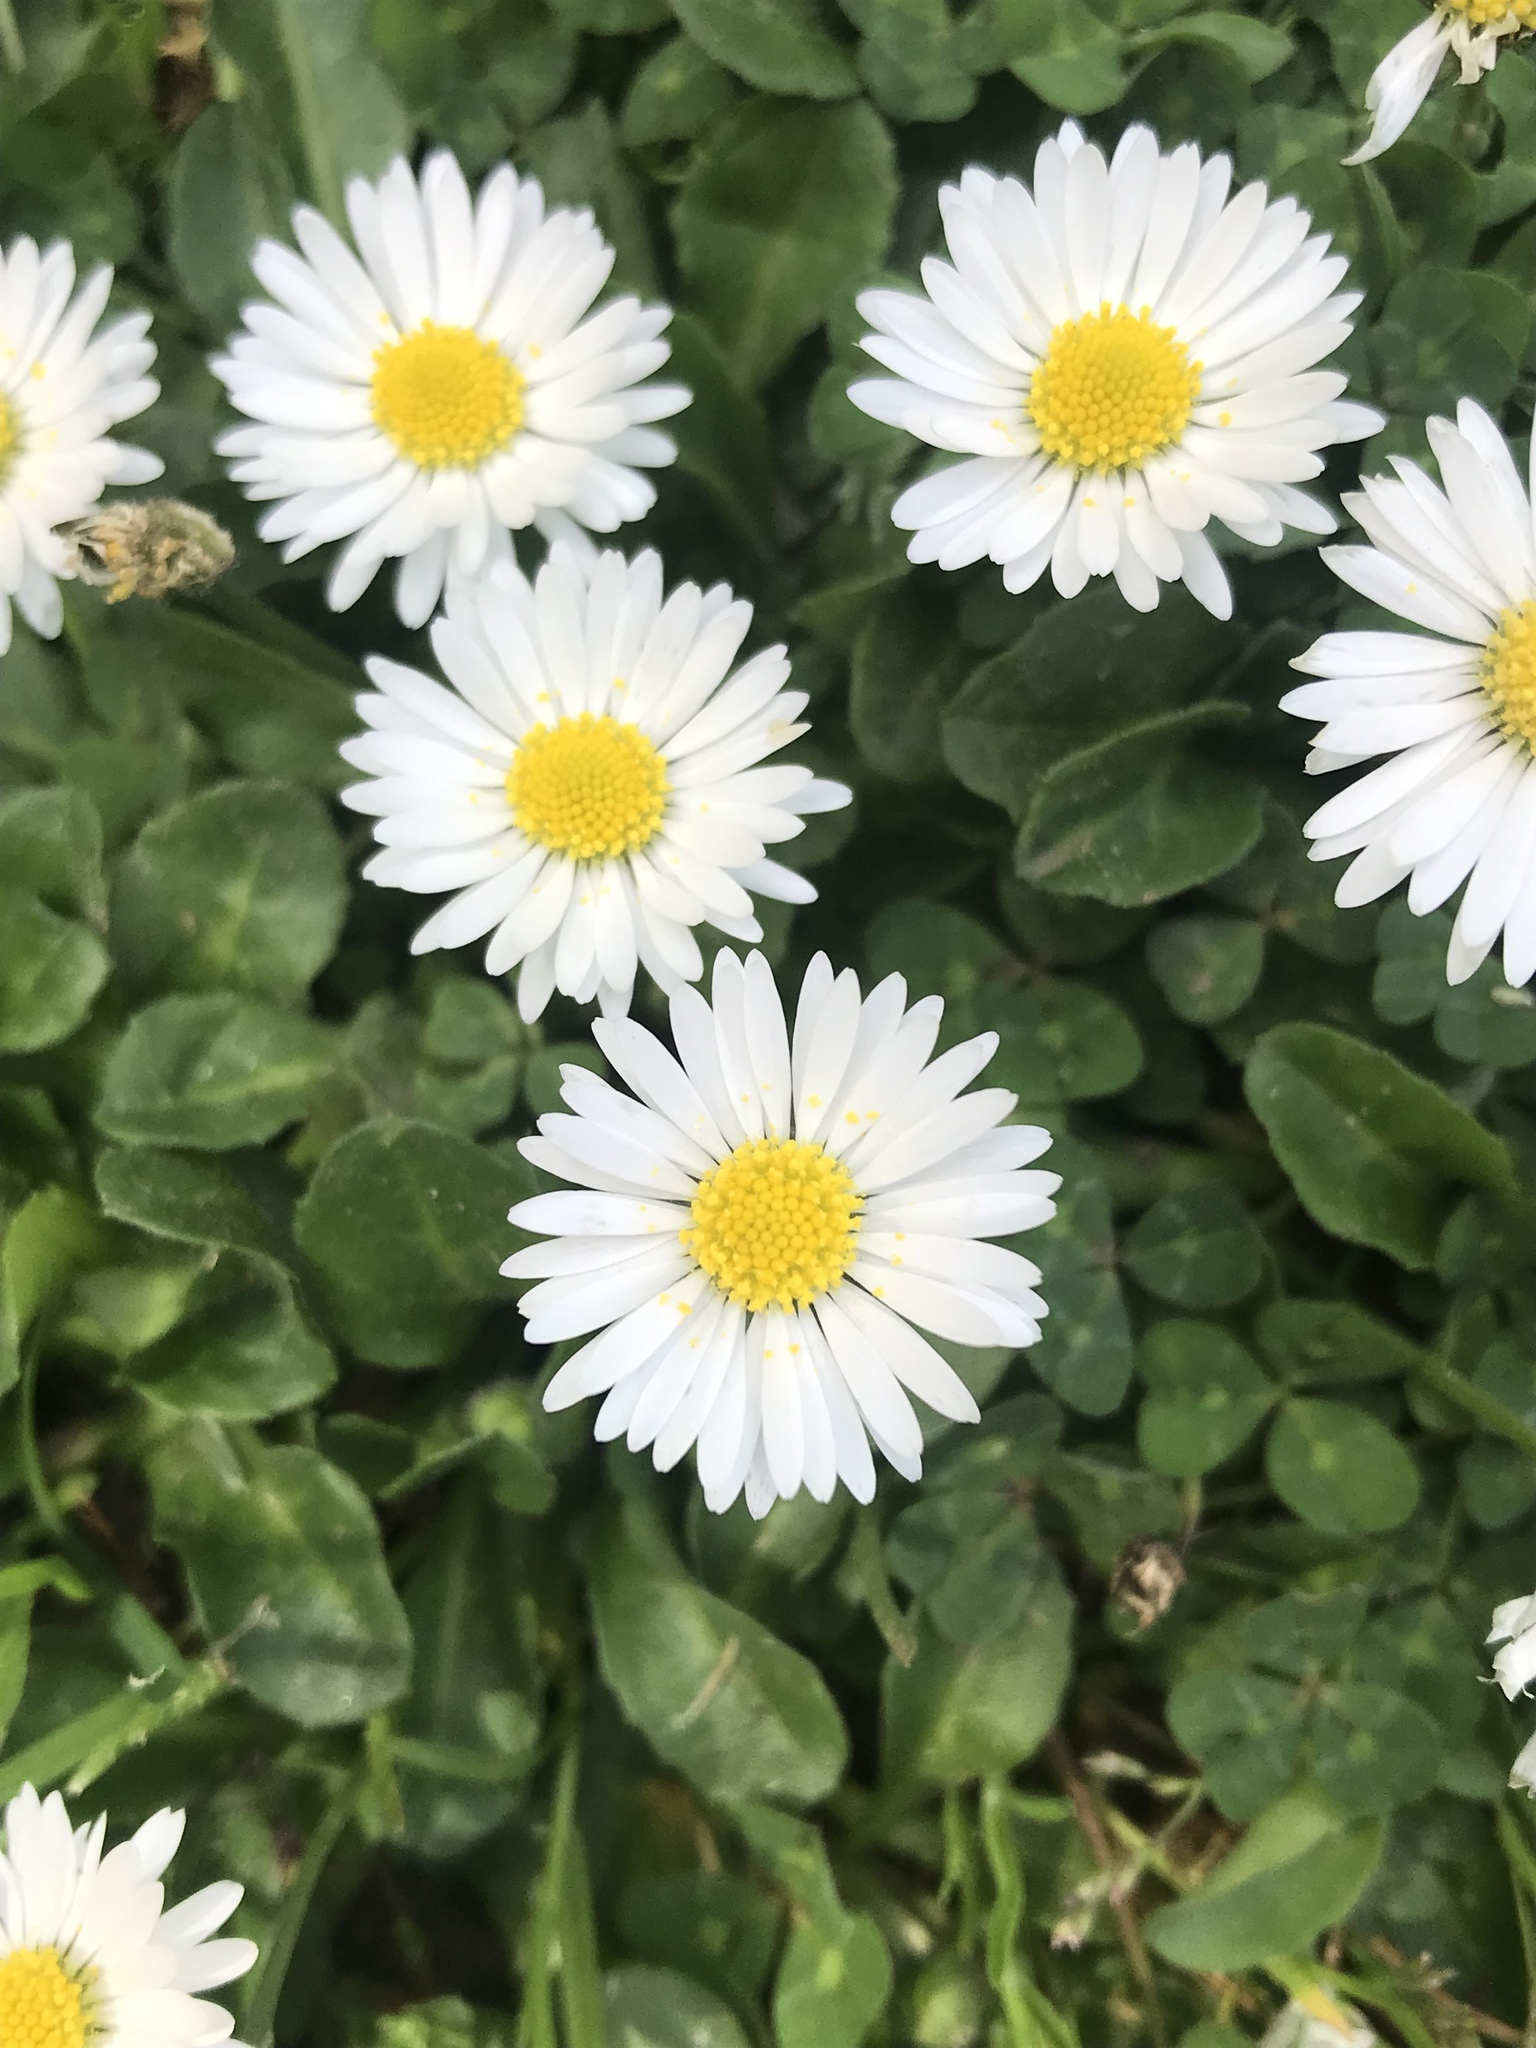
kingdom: Plantae
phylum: Tracheophyta
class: Magnoliopsida
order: Asterales
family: Asteraceae
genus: Bellis
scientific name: Bellis perennis
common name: Lawndaisy
